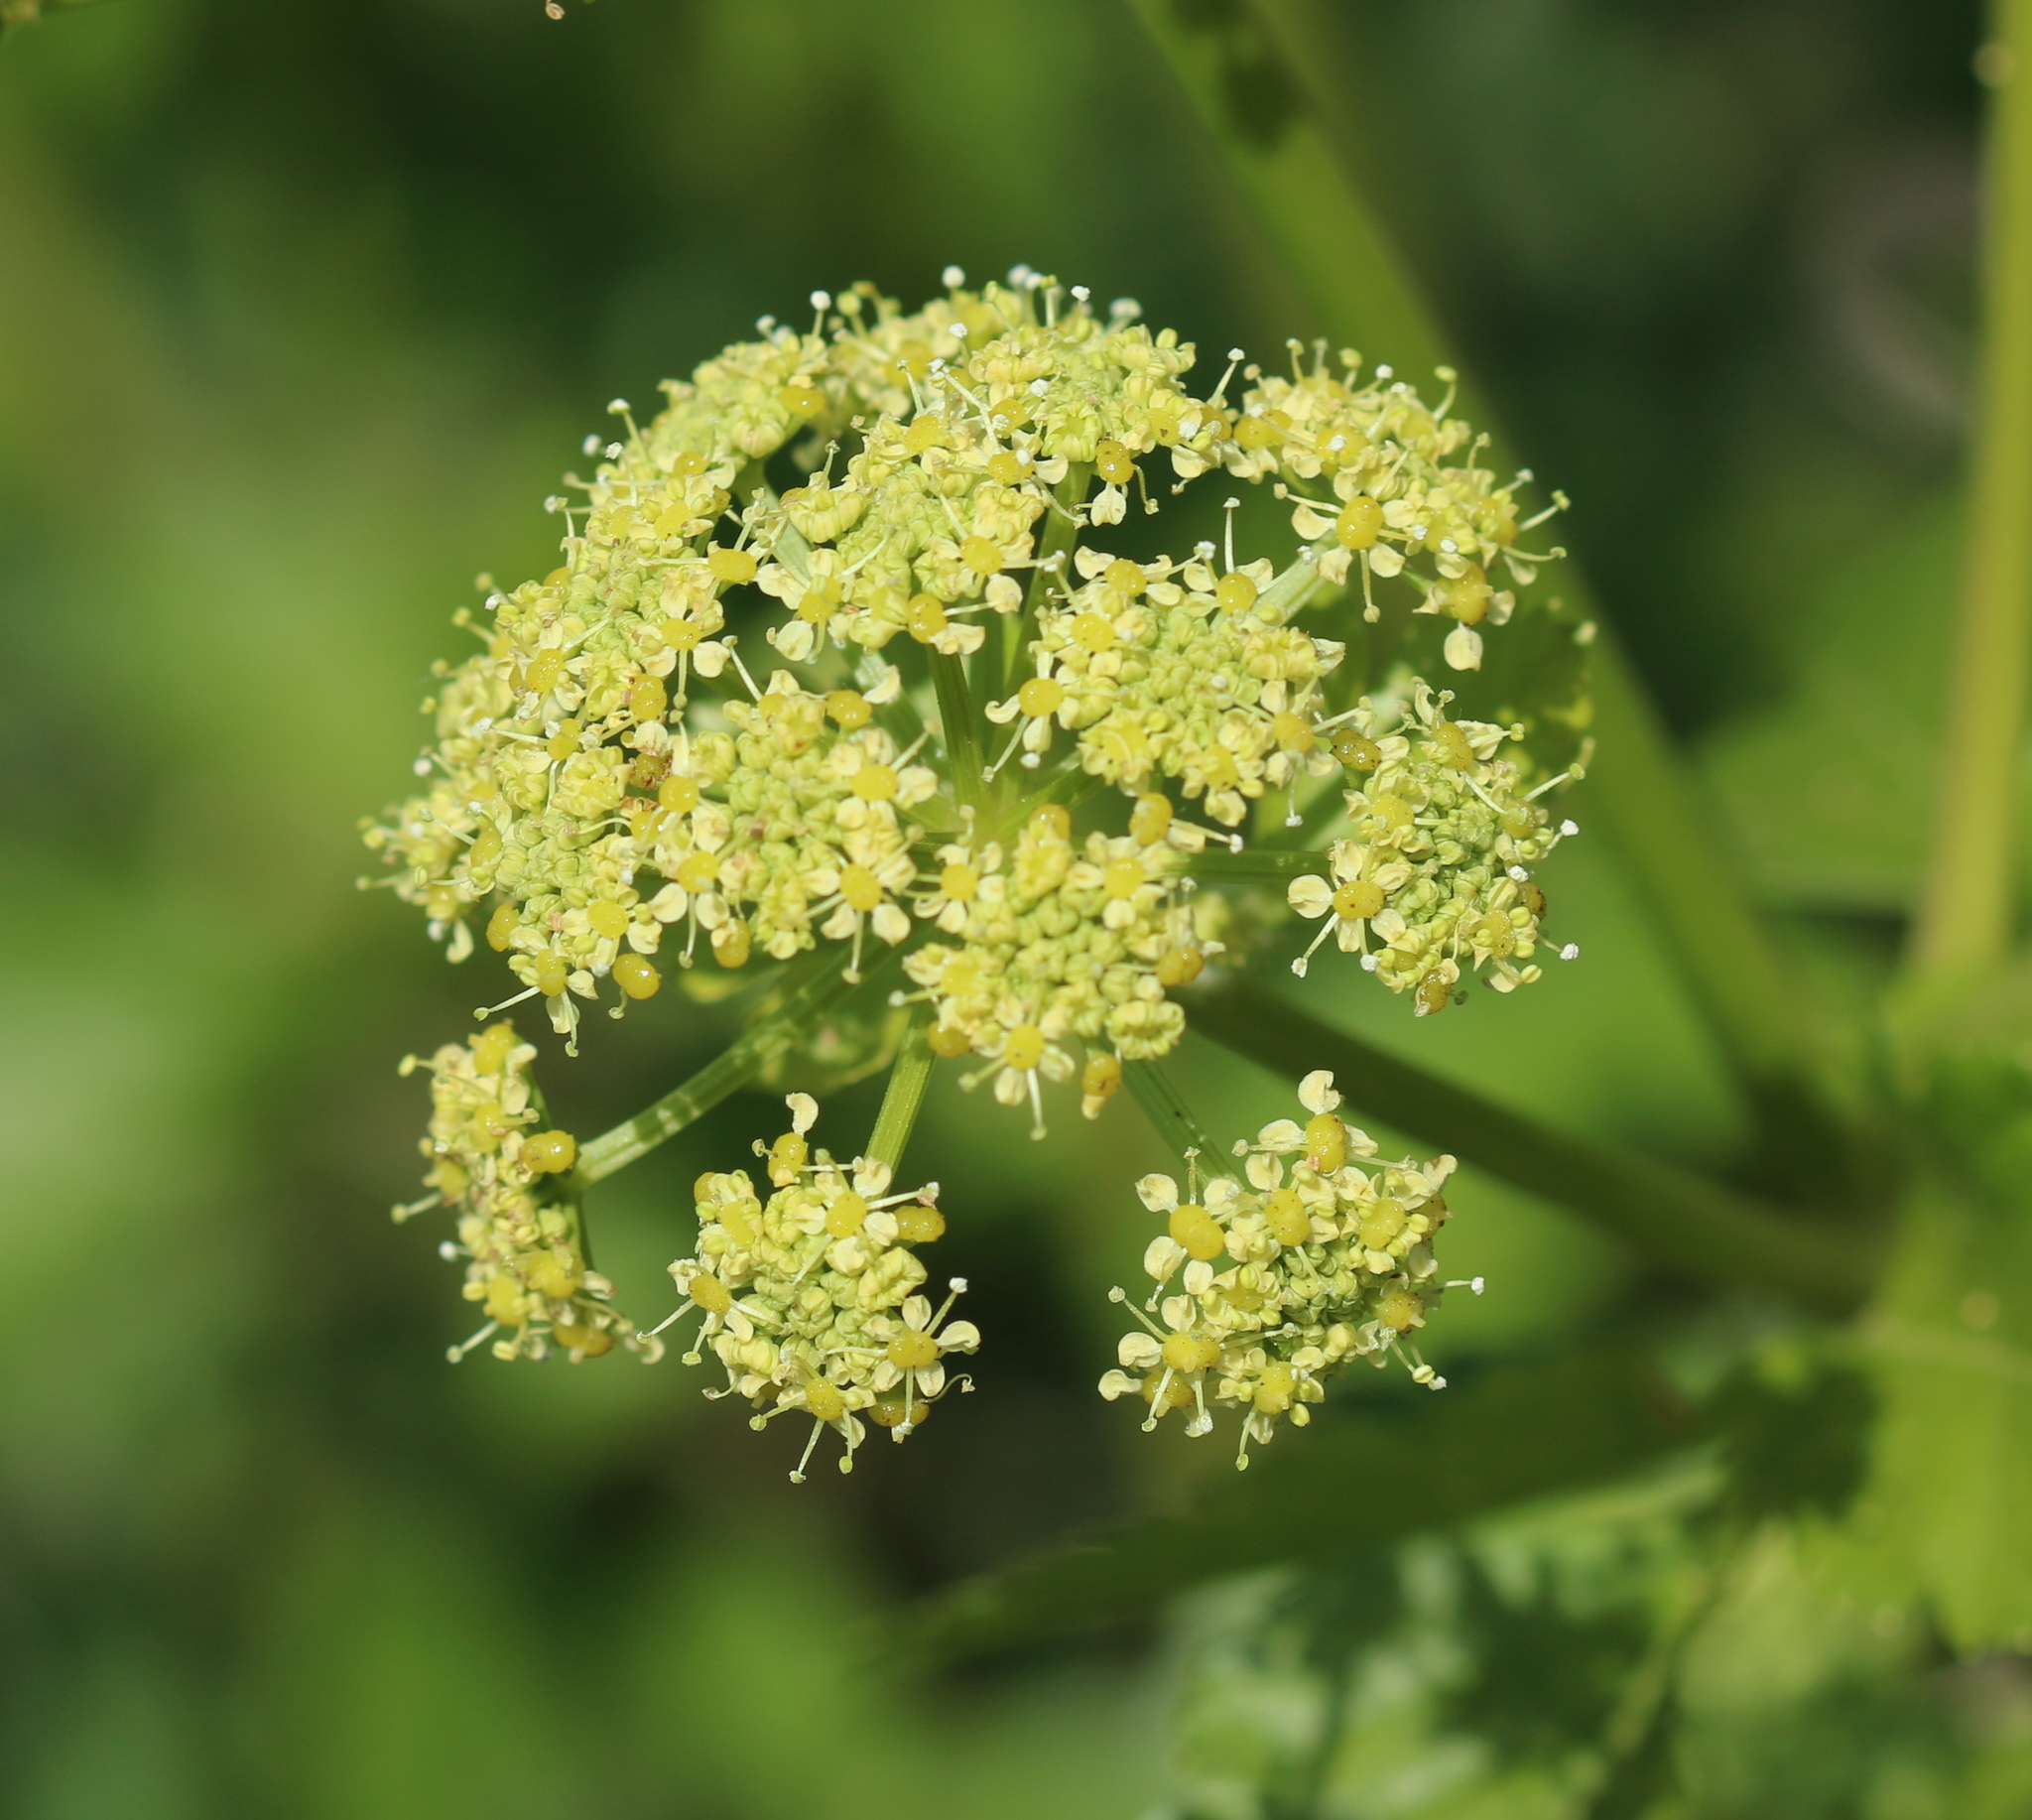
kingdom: Plantae
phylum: Tracheophyta
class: Magnoliopsida
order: Apiales
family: Apiaceae
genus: Smyrnium
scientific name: Smyrnium olusatrum
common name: Alexanders
